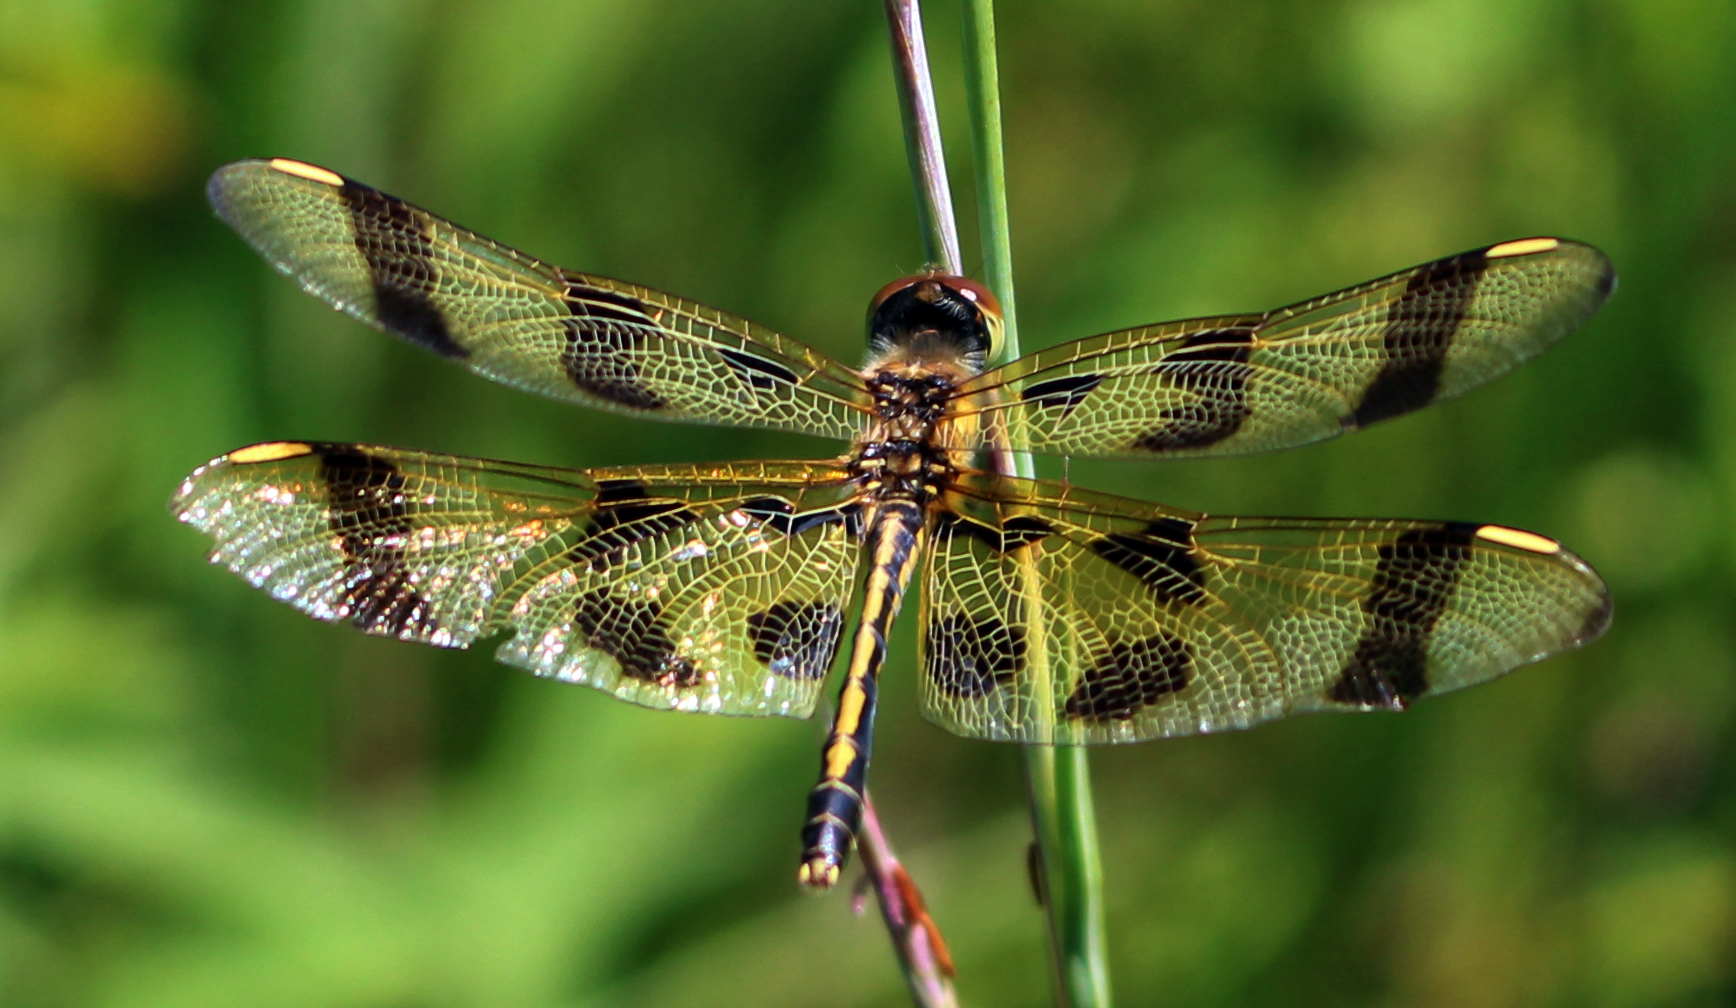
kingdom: Animalia
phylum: Arthropoda
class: Insecta
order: Odonata
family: Libellulidae
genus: Celithemis
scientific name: Celithemis eponina
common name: Halloween pennant
